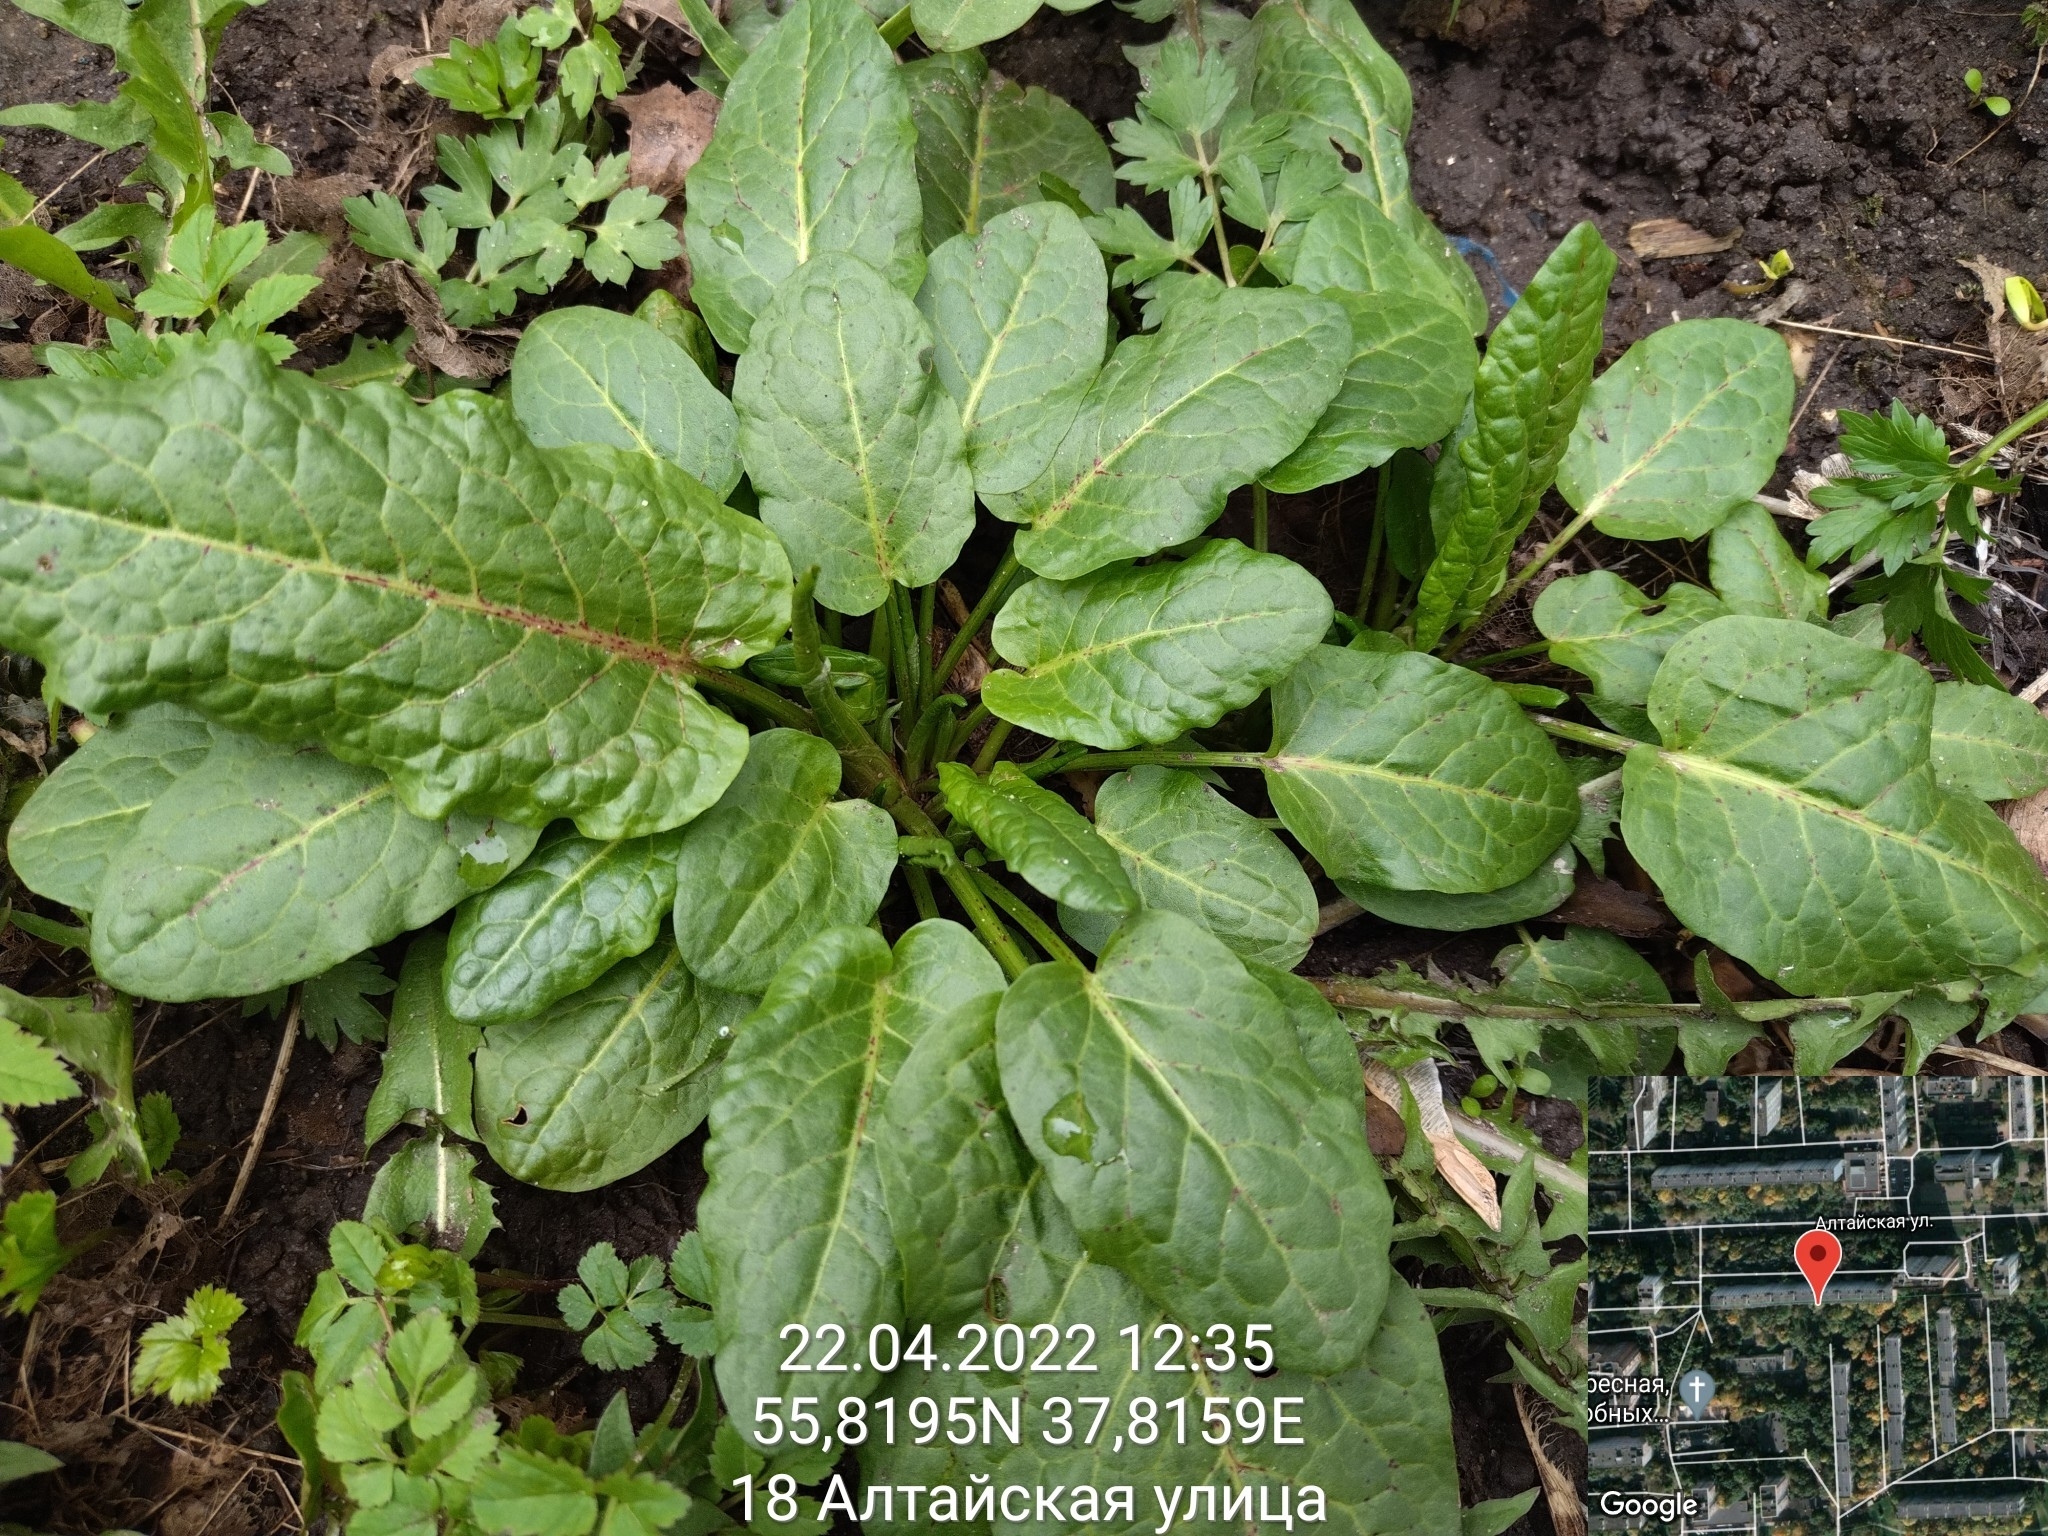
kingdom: Plantae
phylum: Tracheophyta
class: Magnoliopsida
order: Caryophyllales
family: Polygonaceae
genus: Rumex
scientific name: Rumex obtusifolius
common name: Bitter dock
